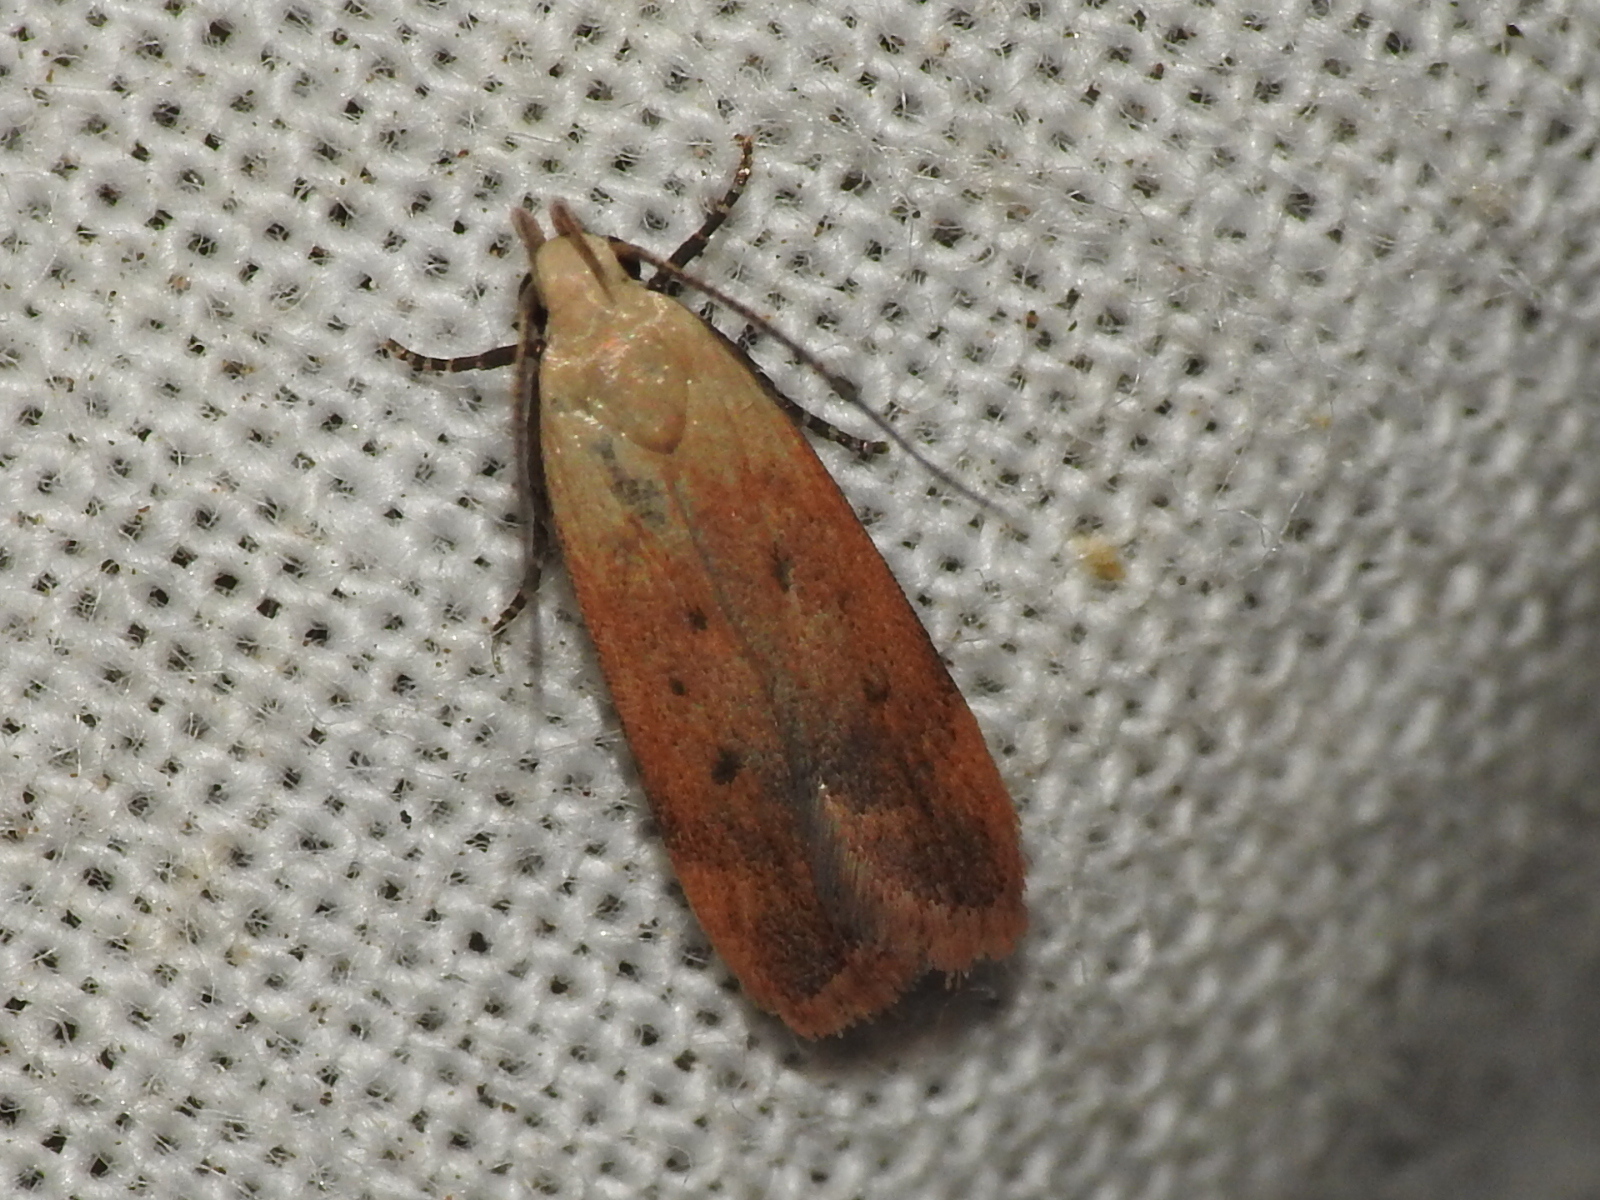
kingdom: Animalia
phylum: Arthropoda
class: Insecta
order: Lepidoptera
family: Gelechiidae
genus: Anacampsis
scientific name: Anacampsis fullonella
